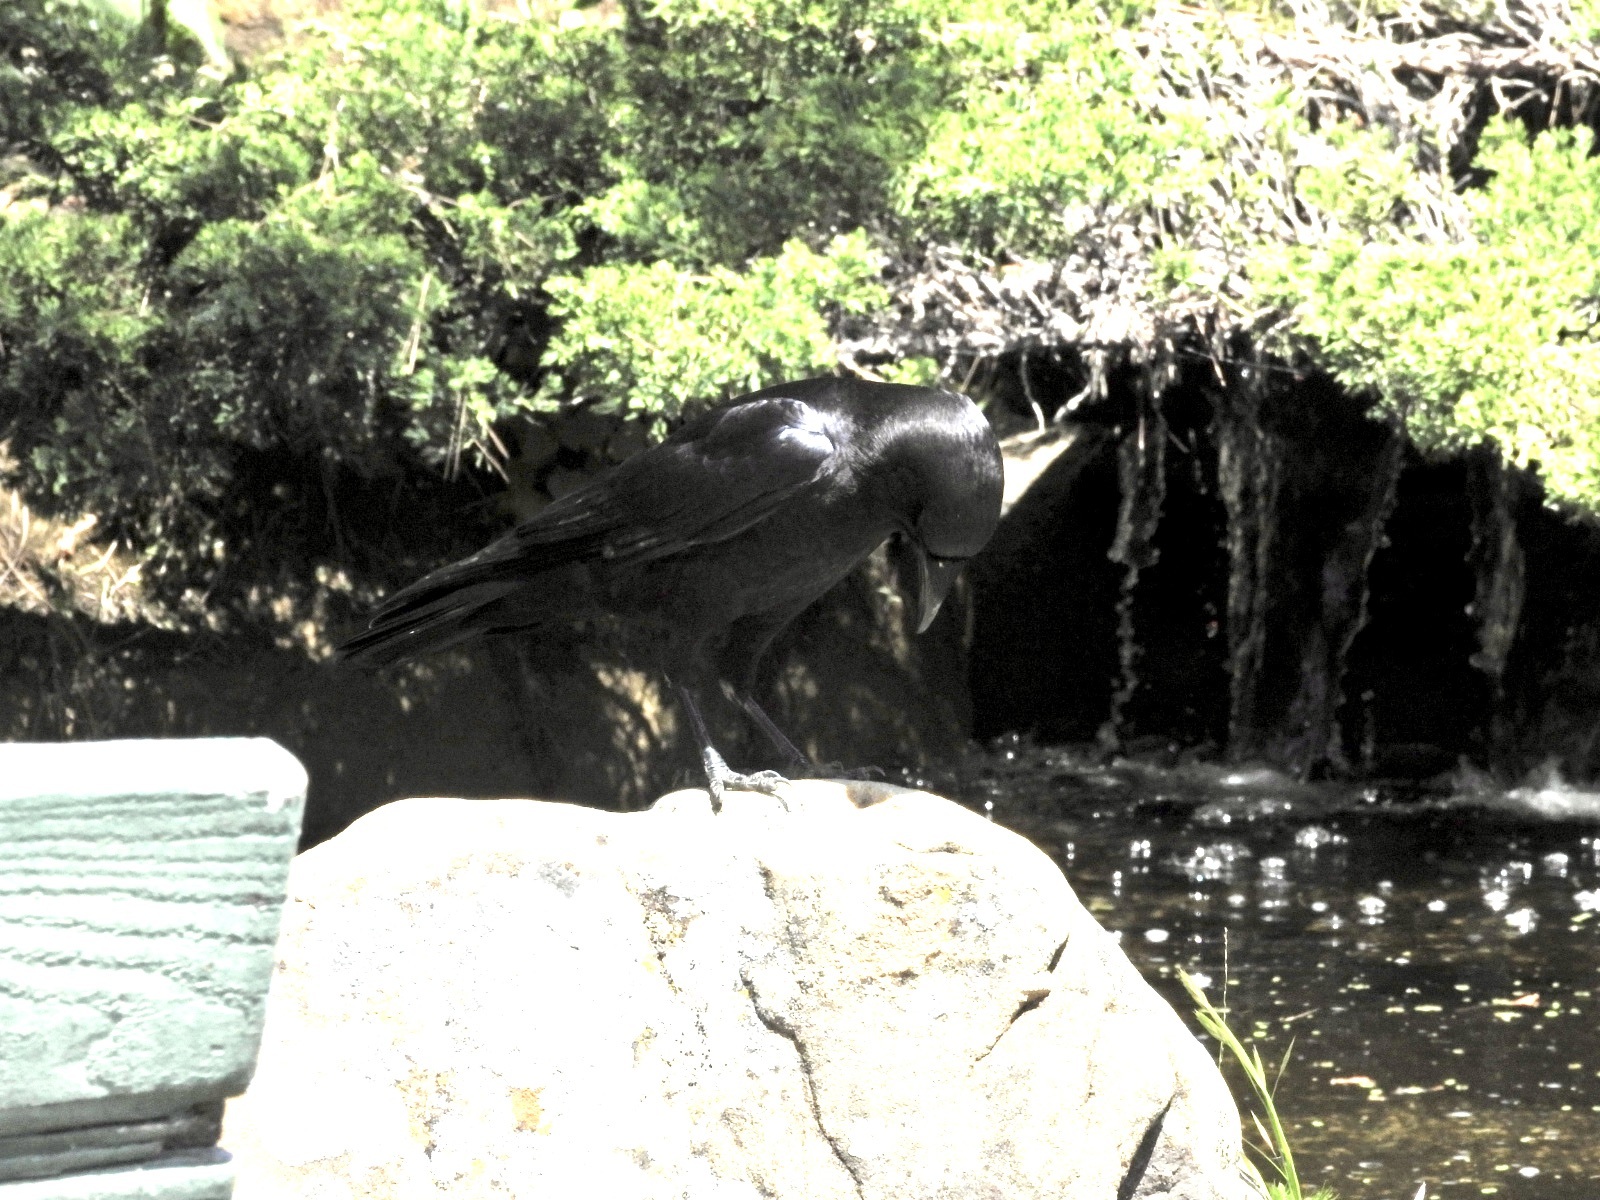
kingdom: Animalia
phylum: Chordata
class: Aves
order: Passeriformes
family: Corvidae
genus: Corvus
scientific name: Corvus brachyrhynchos
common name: American crow
